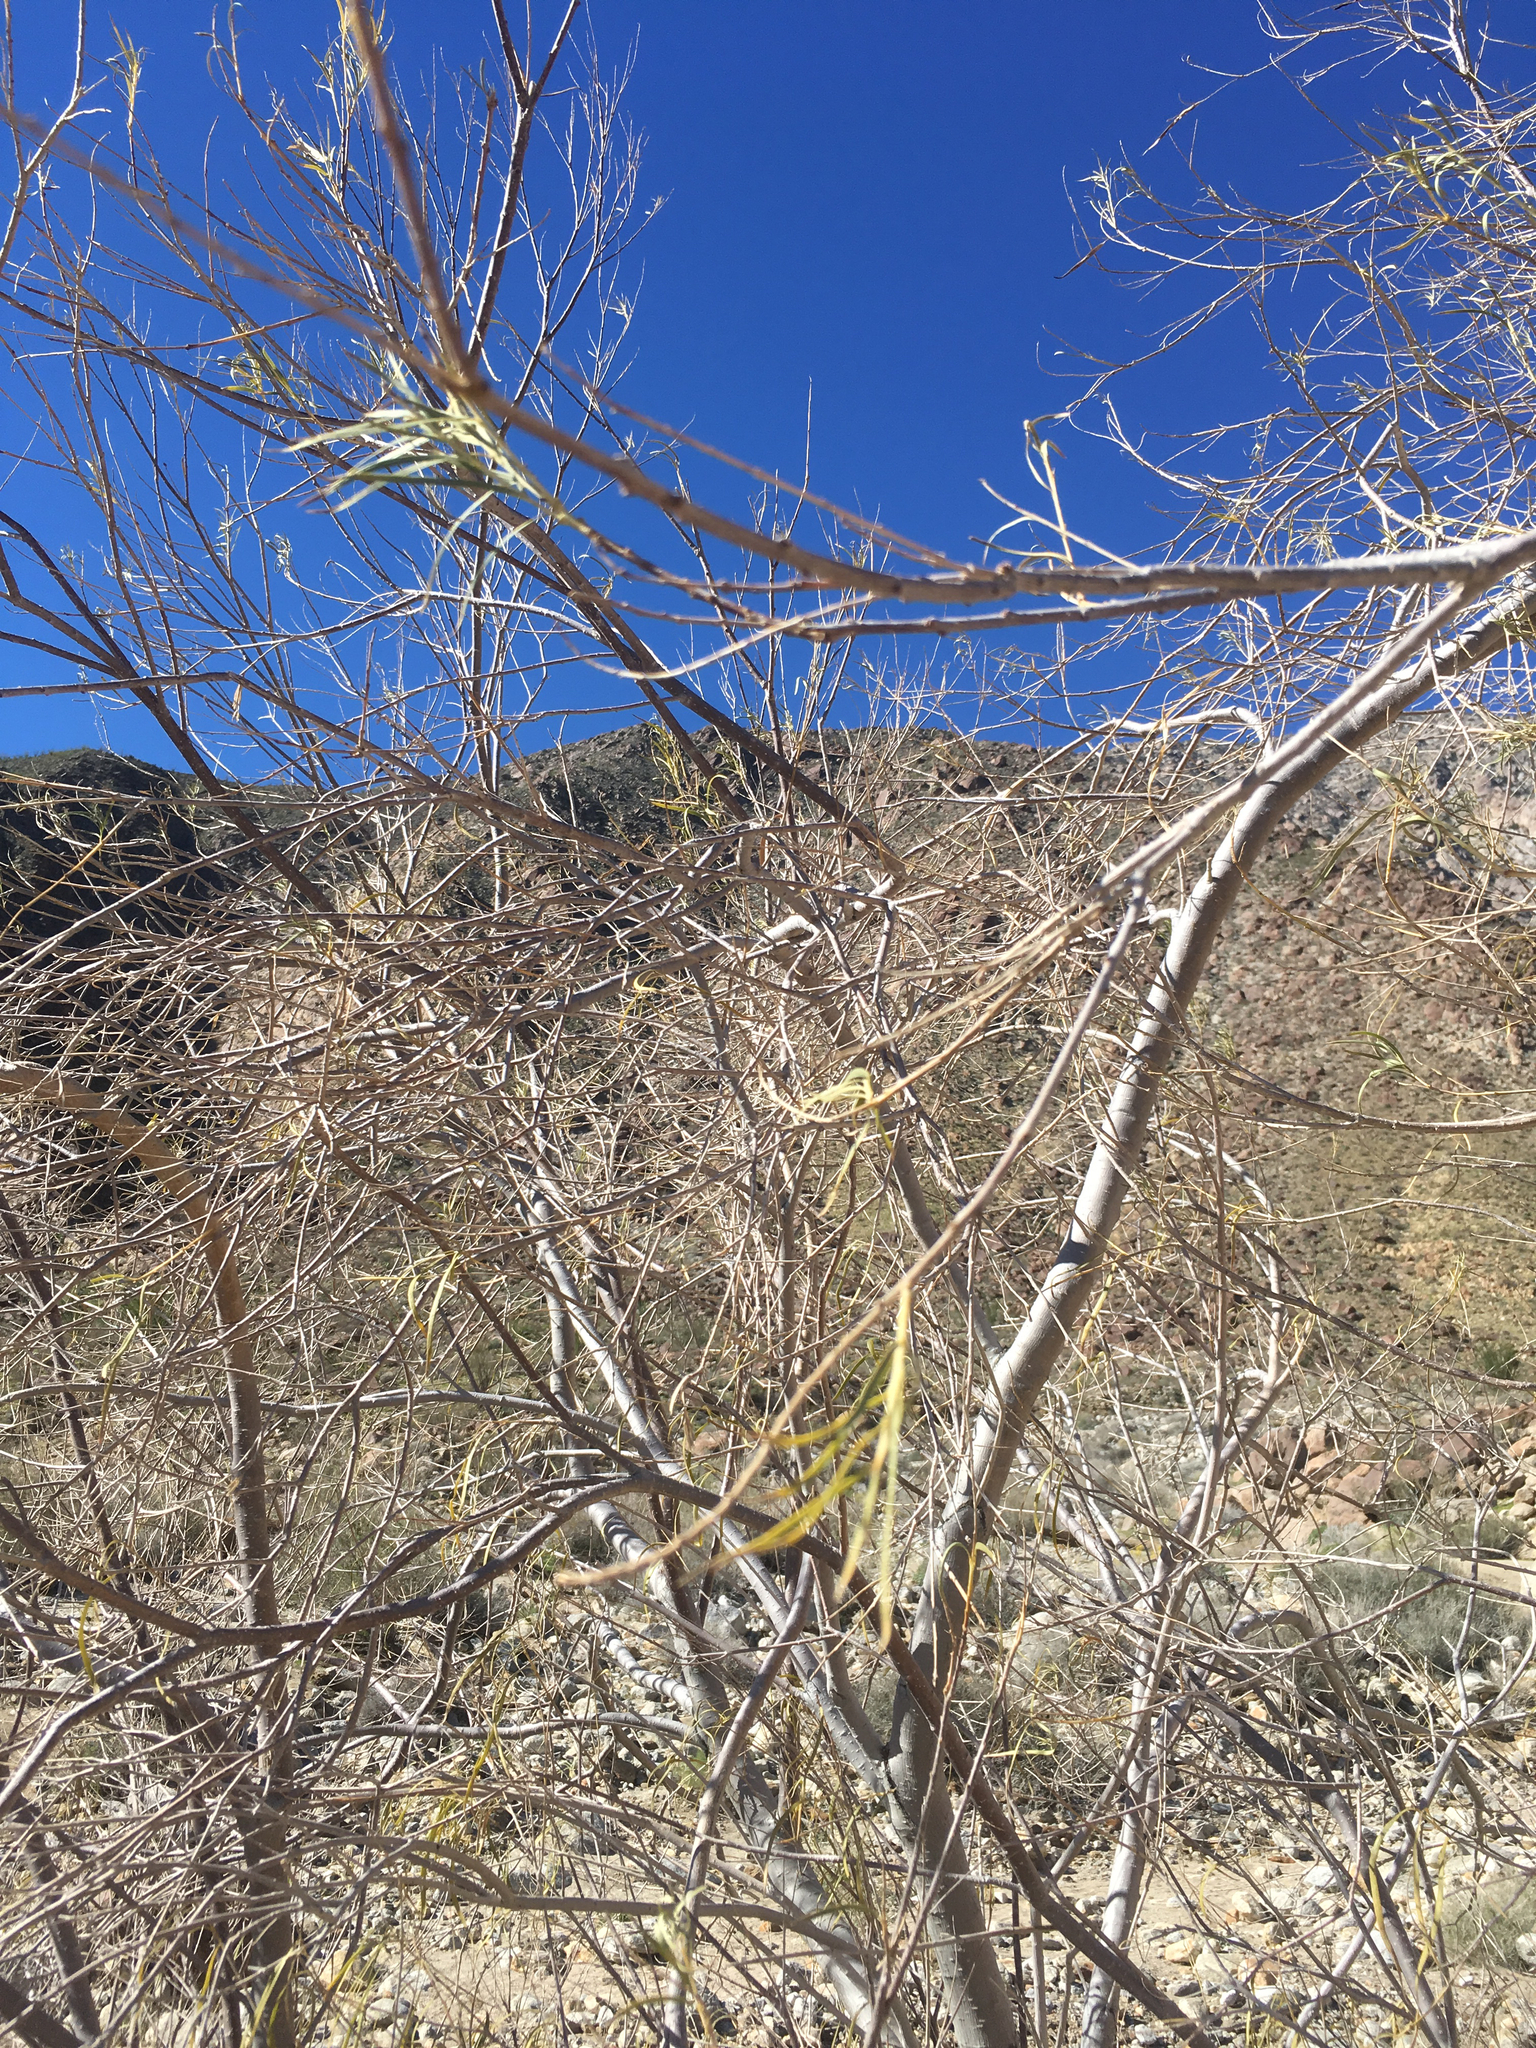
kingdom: Plantae
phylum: Tracheophyta
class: Magnoliopsida
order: Lamiales
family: Bignoniaceae
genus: Chilopsis
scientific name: Chilopsis linearis
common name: Desert-willow
